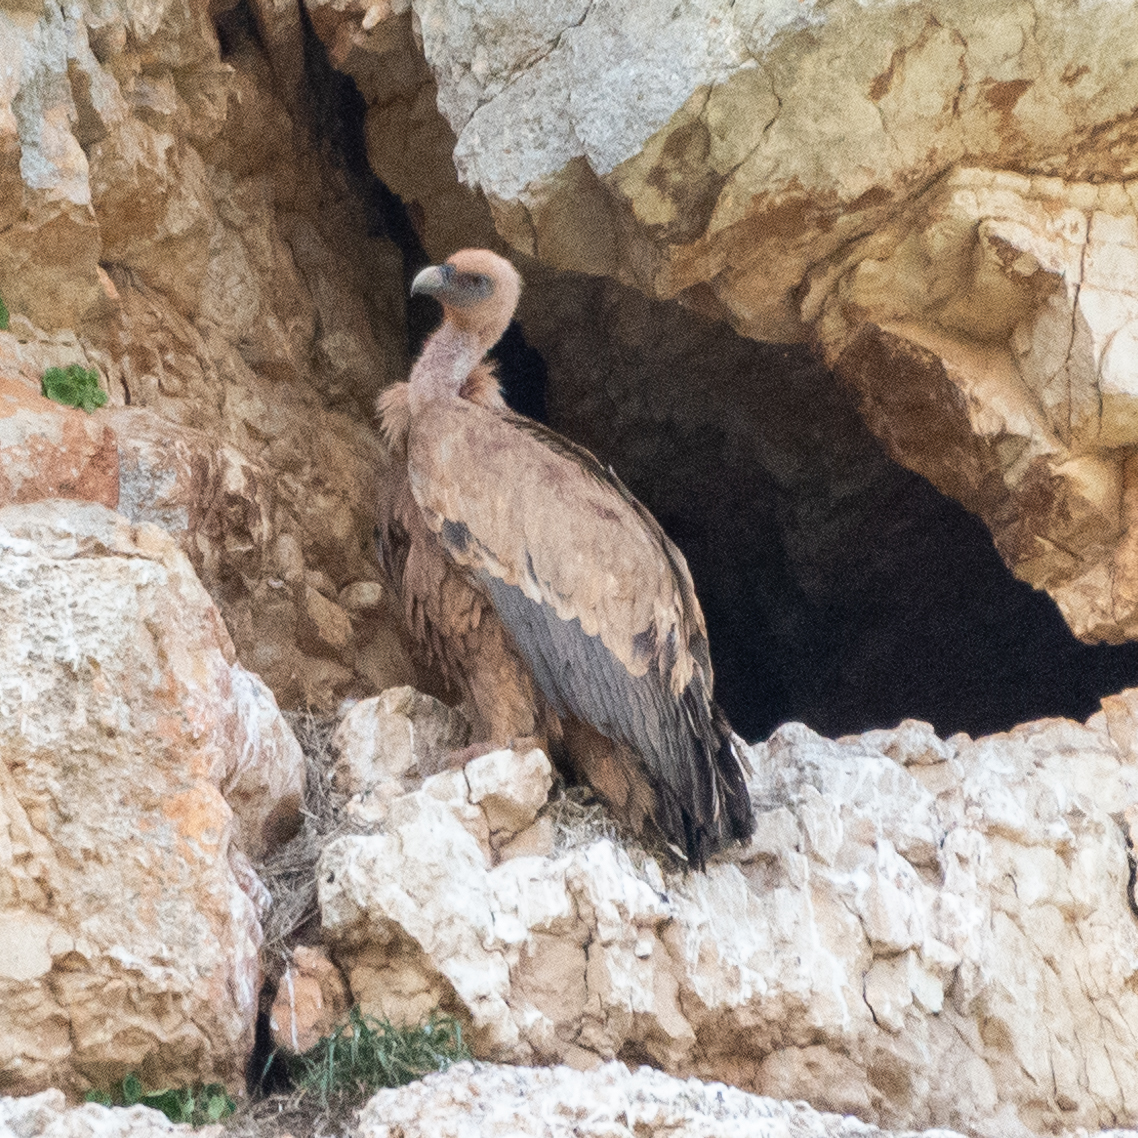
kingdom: Animalia
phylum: Chordata
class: Aves
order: Accipitriformes
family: Accipitridae
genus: Gyps
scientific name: Gyps fulvus
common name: Griffon vulture
